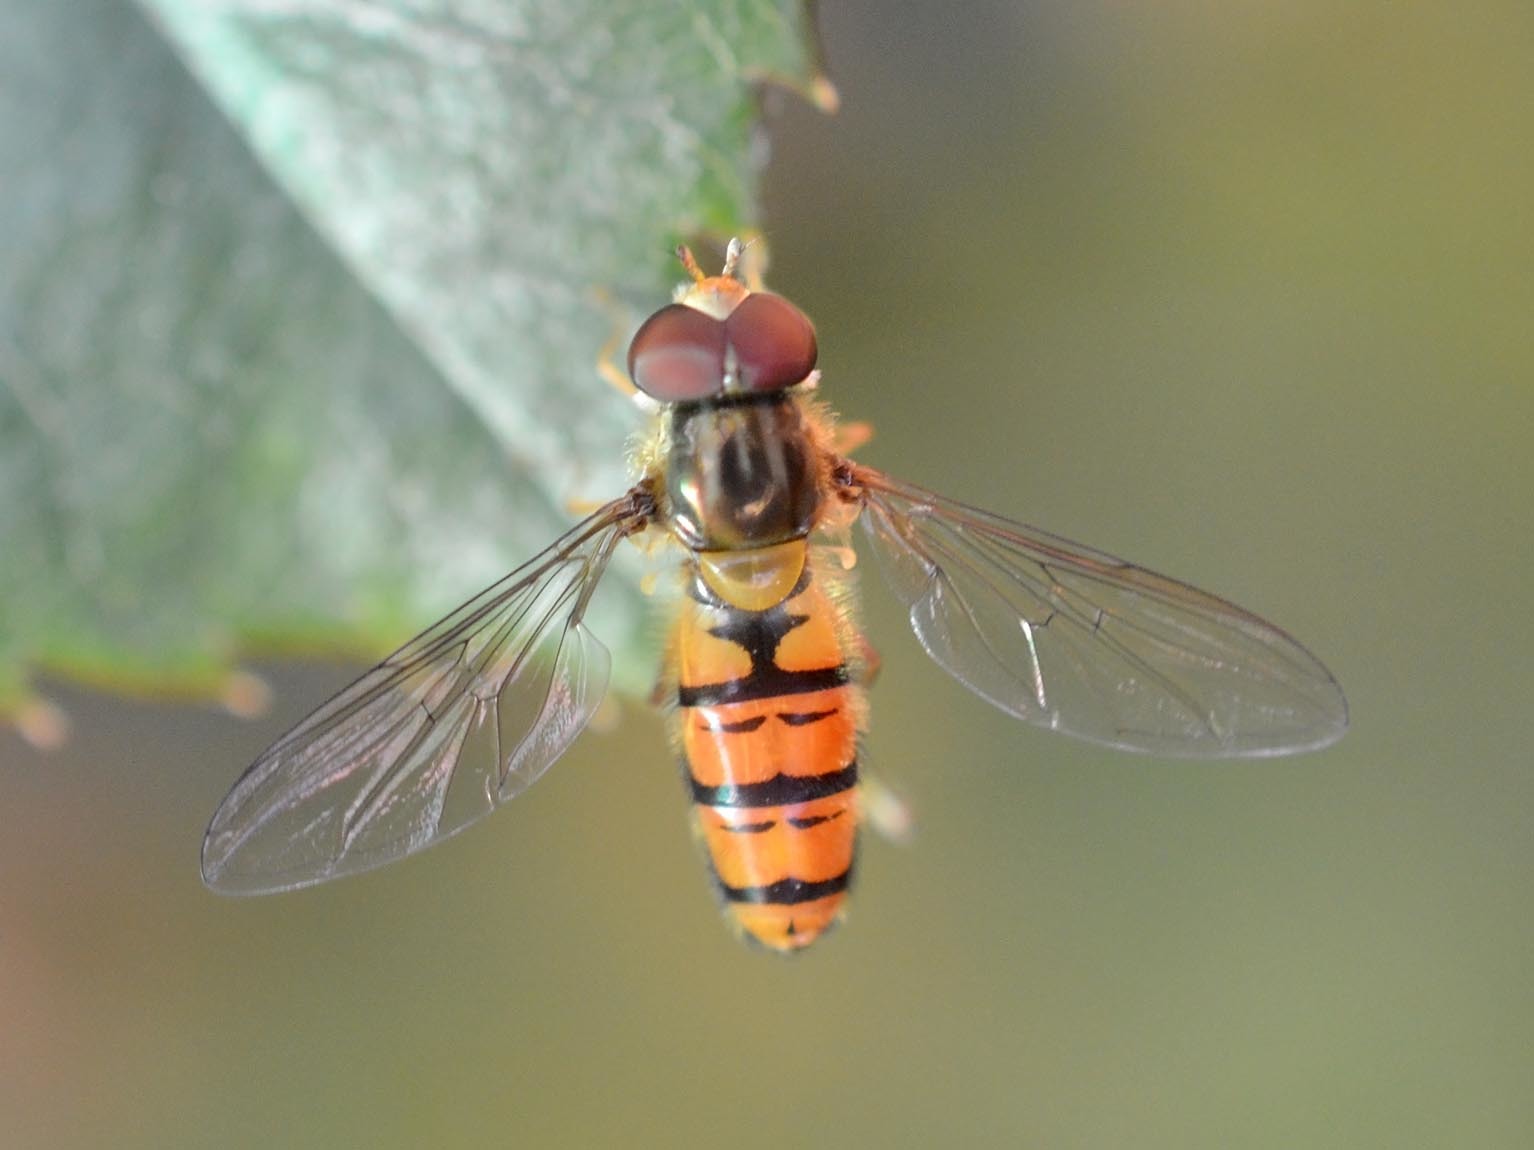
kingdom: Animalia
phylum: Arthropoda
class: Insecta
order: Diptera
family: Syrphidae
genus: Episyrphus
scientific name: Episyrphus balteatus
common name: Marmalade hoverfly
